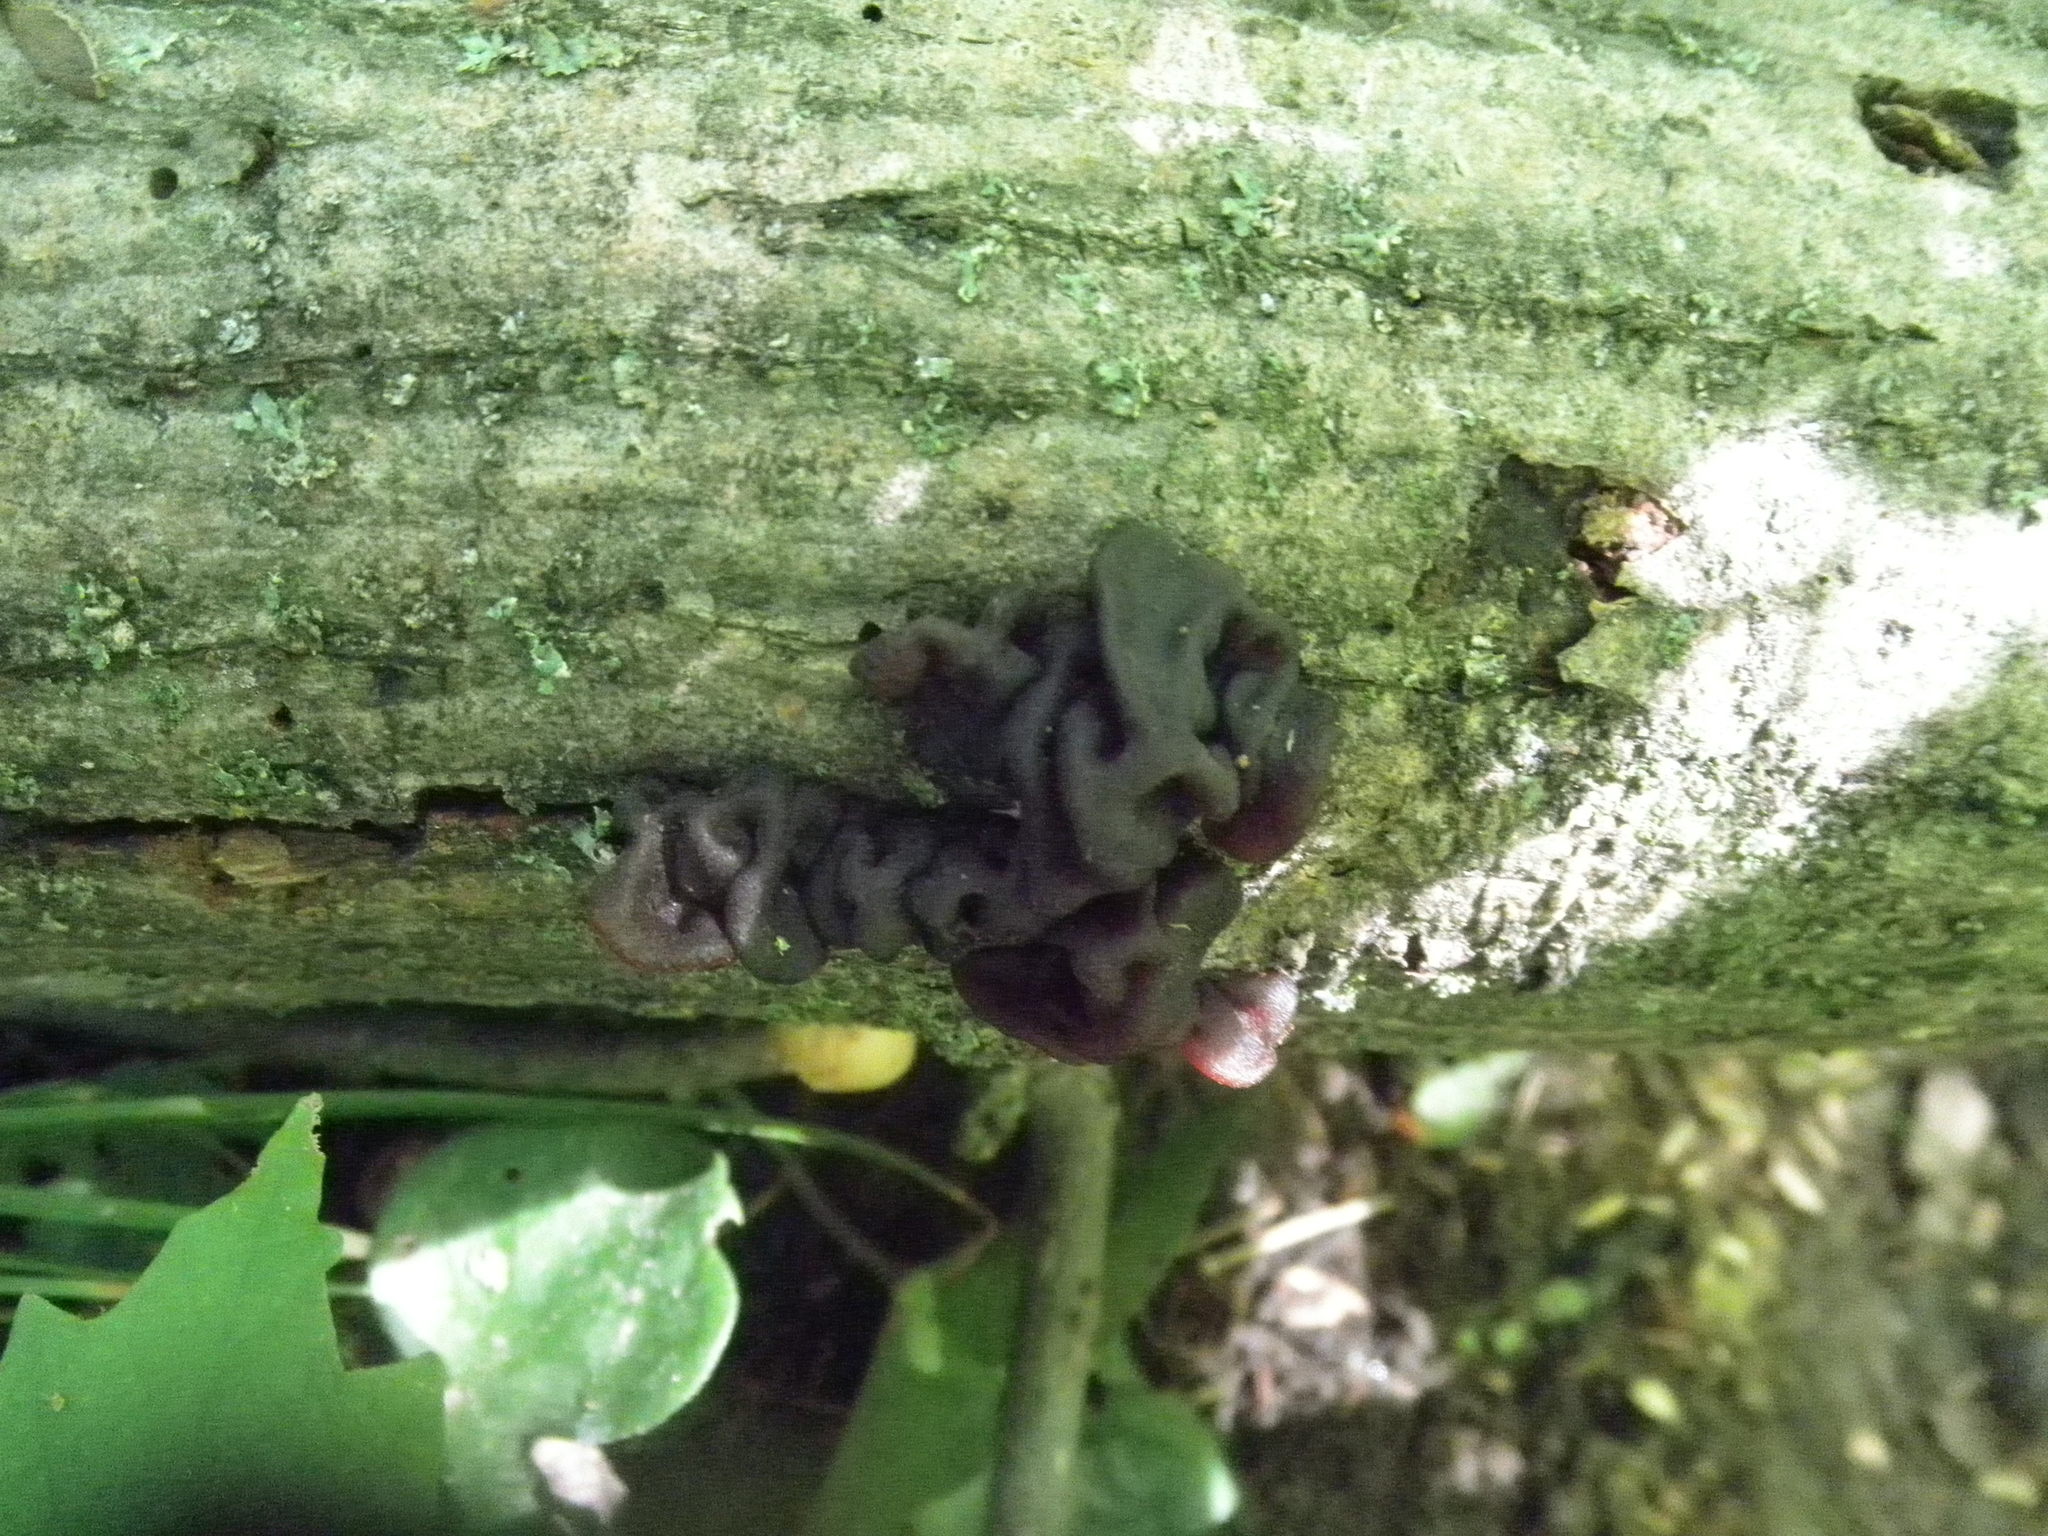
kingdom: Fungi
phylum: Basidiomycota
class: Agaricomycetes
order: Auriculariales
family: Auriculariaceae
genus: Exidia
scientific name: Exidia glandulosa
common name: Witches' butter
